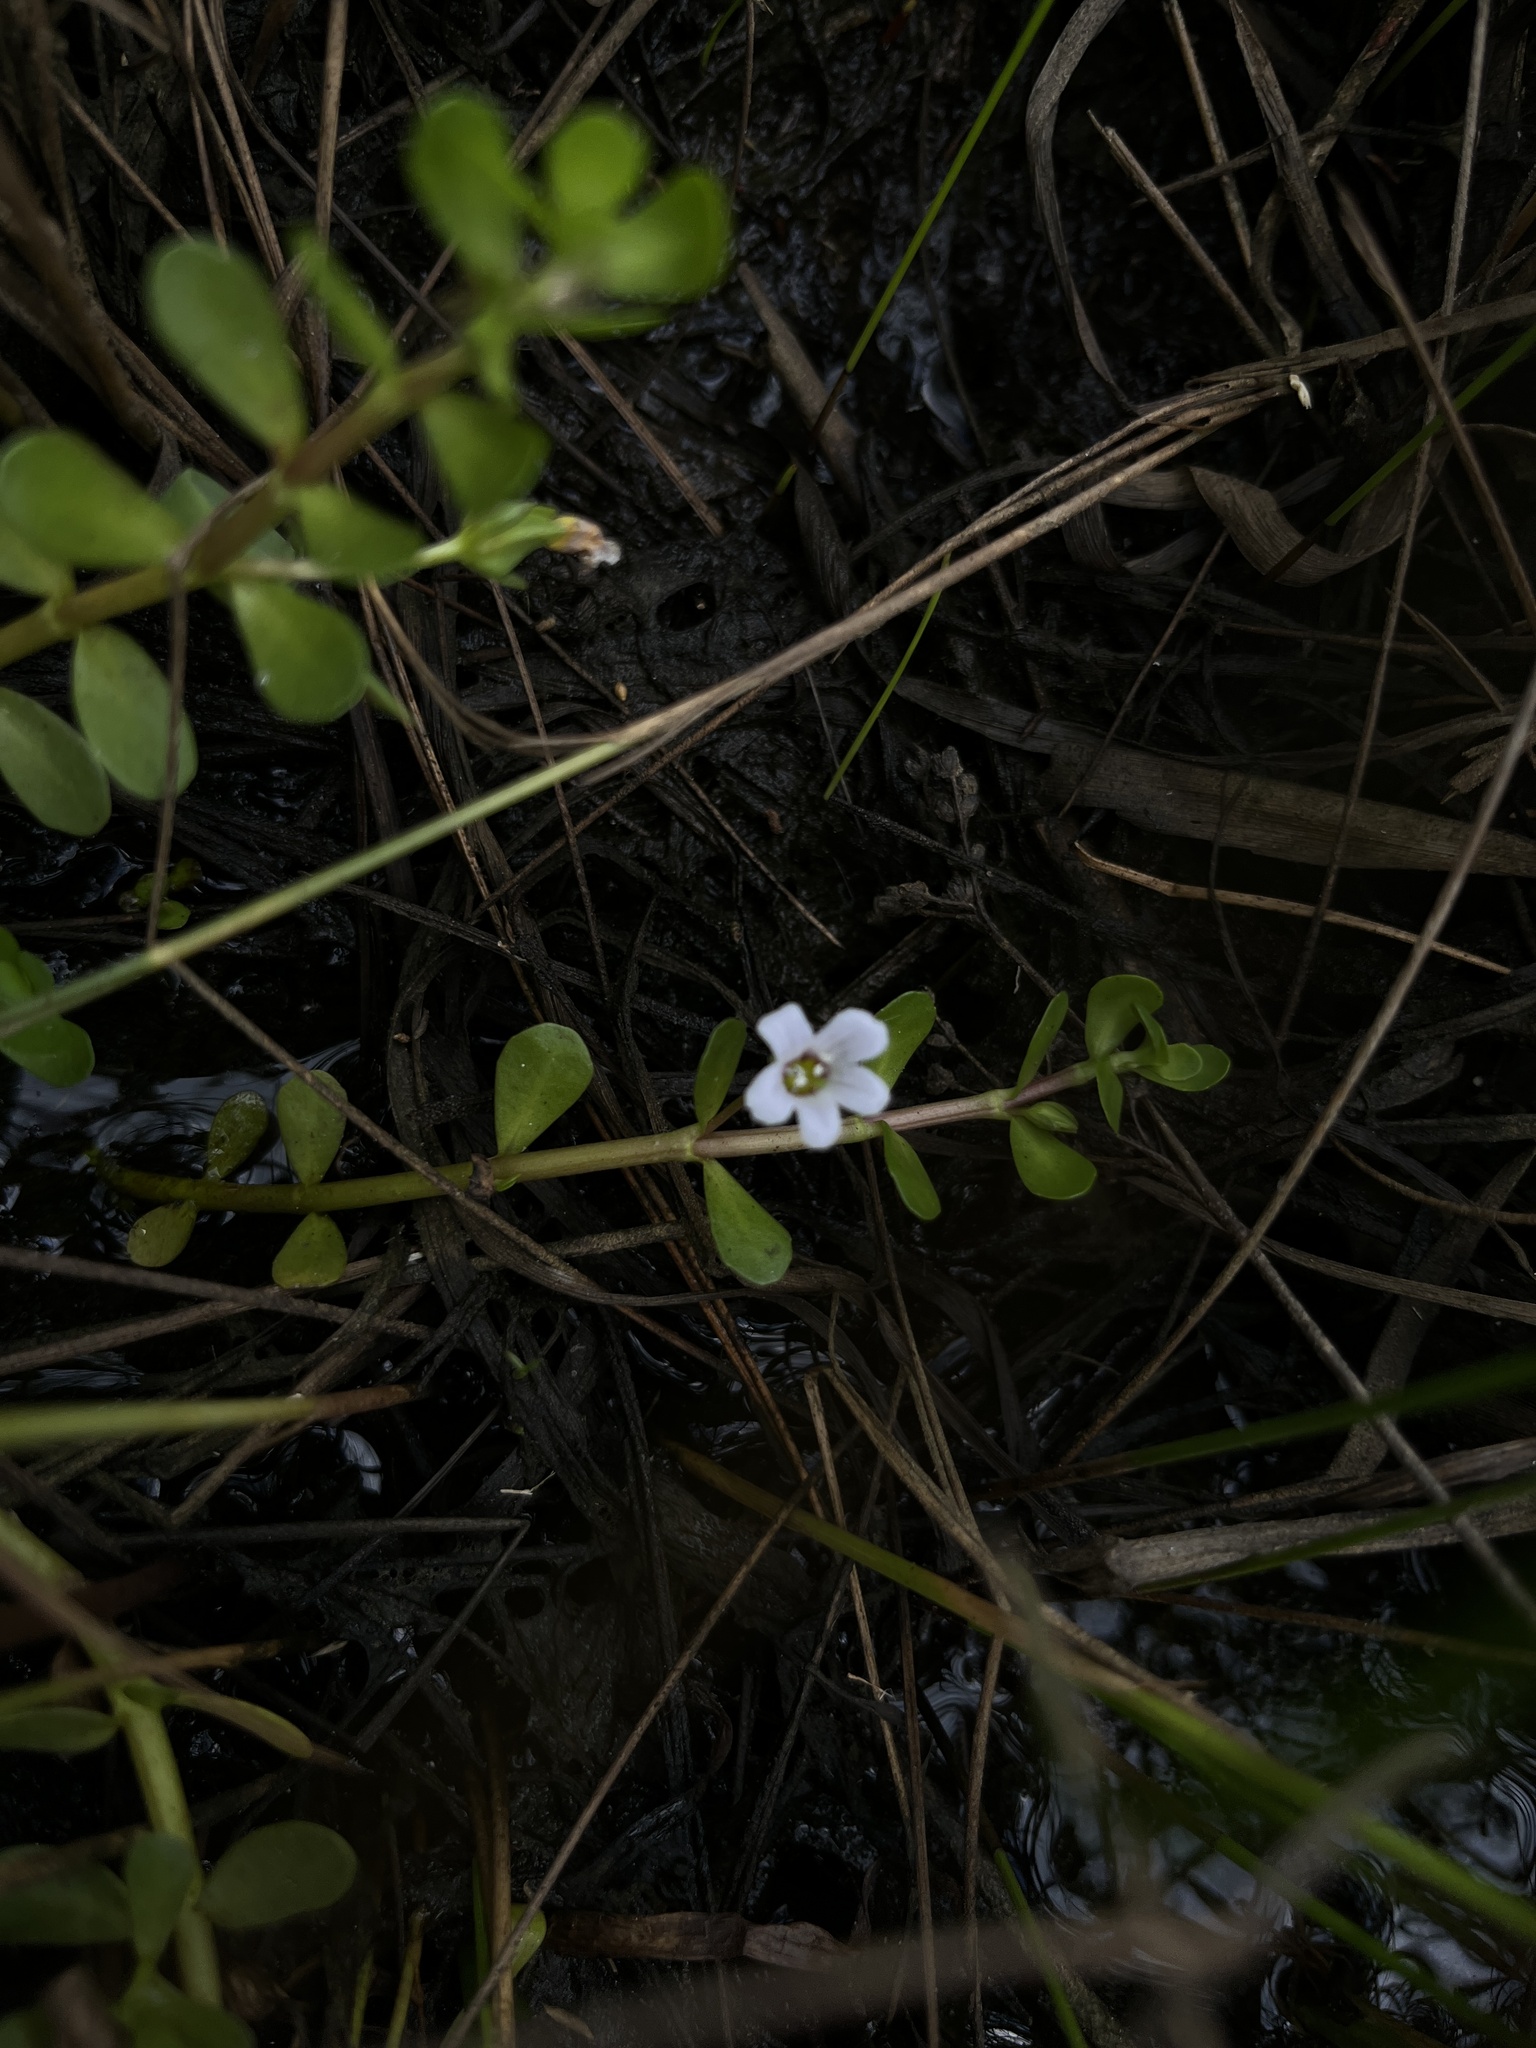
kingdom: Plantae
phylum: Tracheophyta
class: Magnoliopsida
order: Lamiales
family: Plantaginaceae
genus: Bacopa
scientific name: Bacopa monnieri
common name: Indian-pennywort
